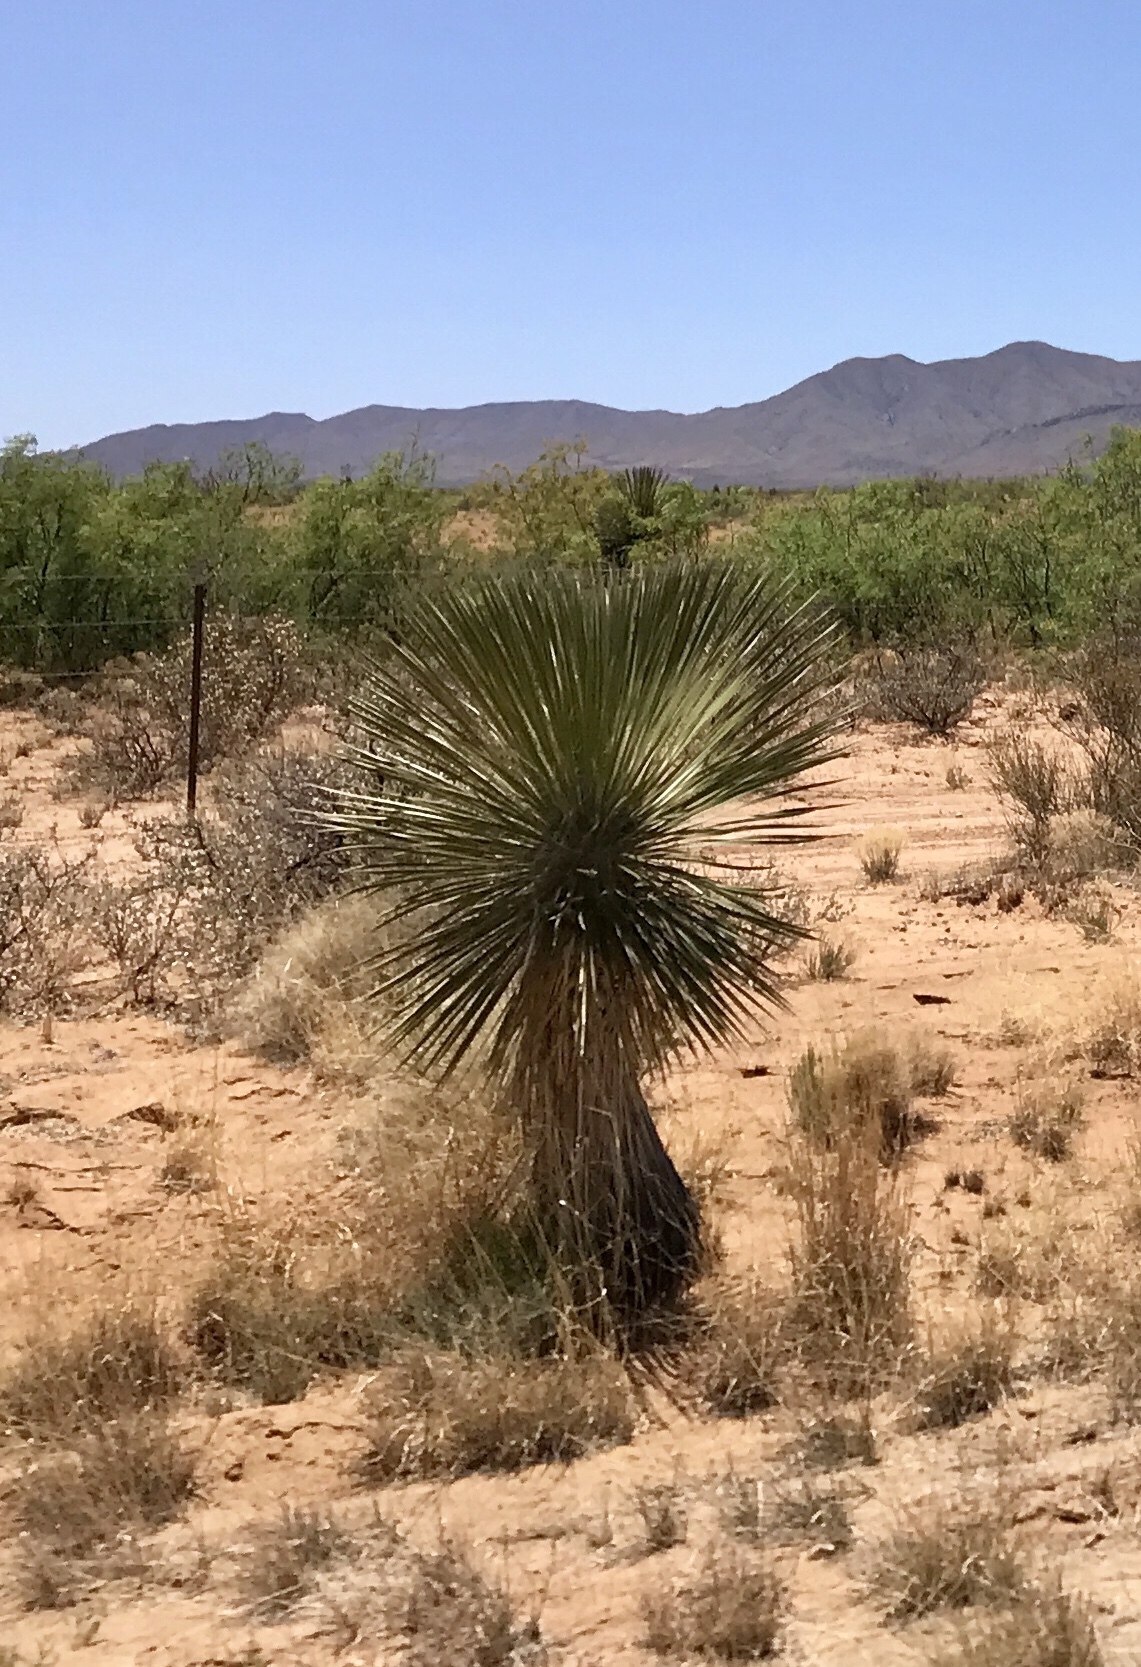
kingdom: Plantae
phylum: Tracheophyta
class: Liliopsida
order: Asparagales
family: Asparagaceae
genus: Yucca
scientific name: Yucca elata
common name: Palmella
